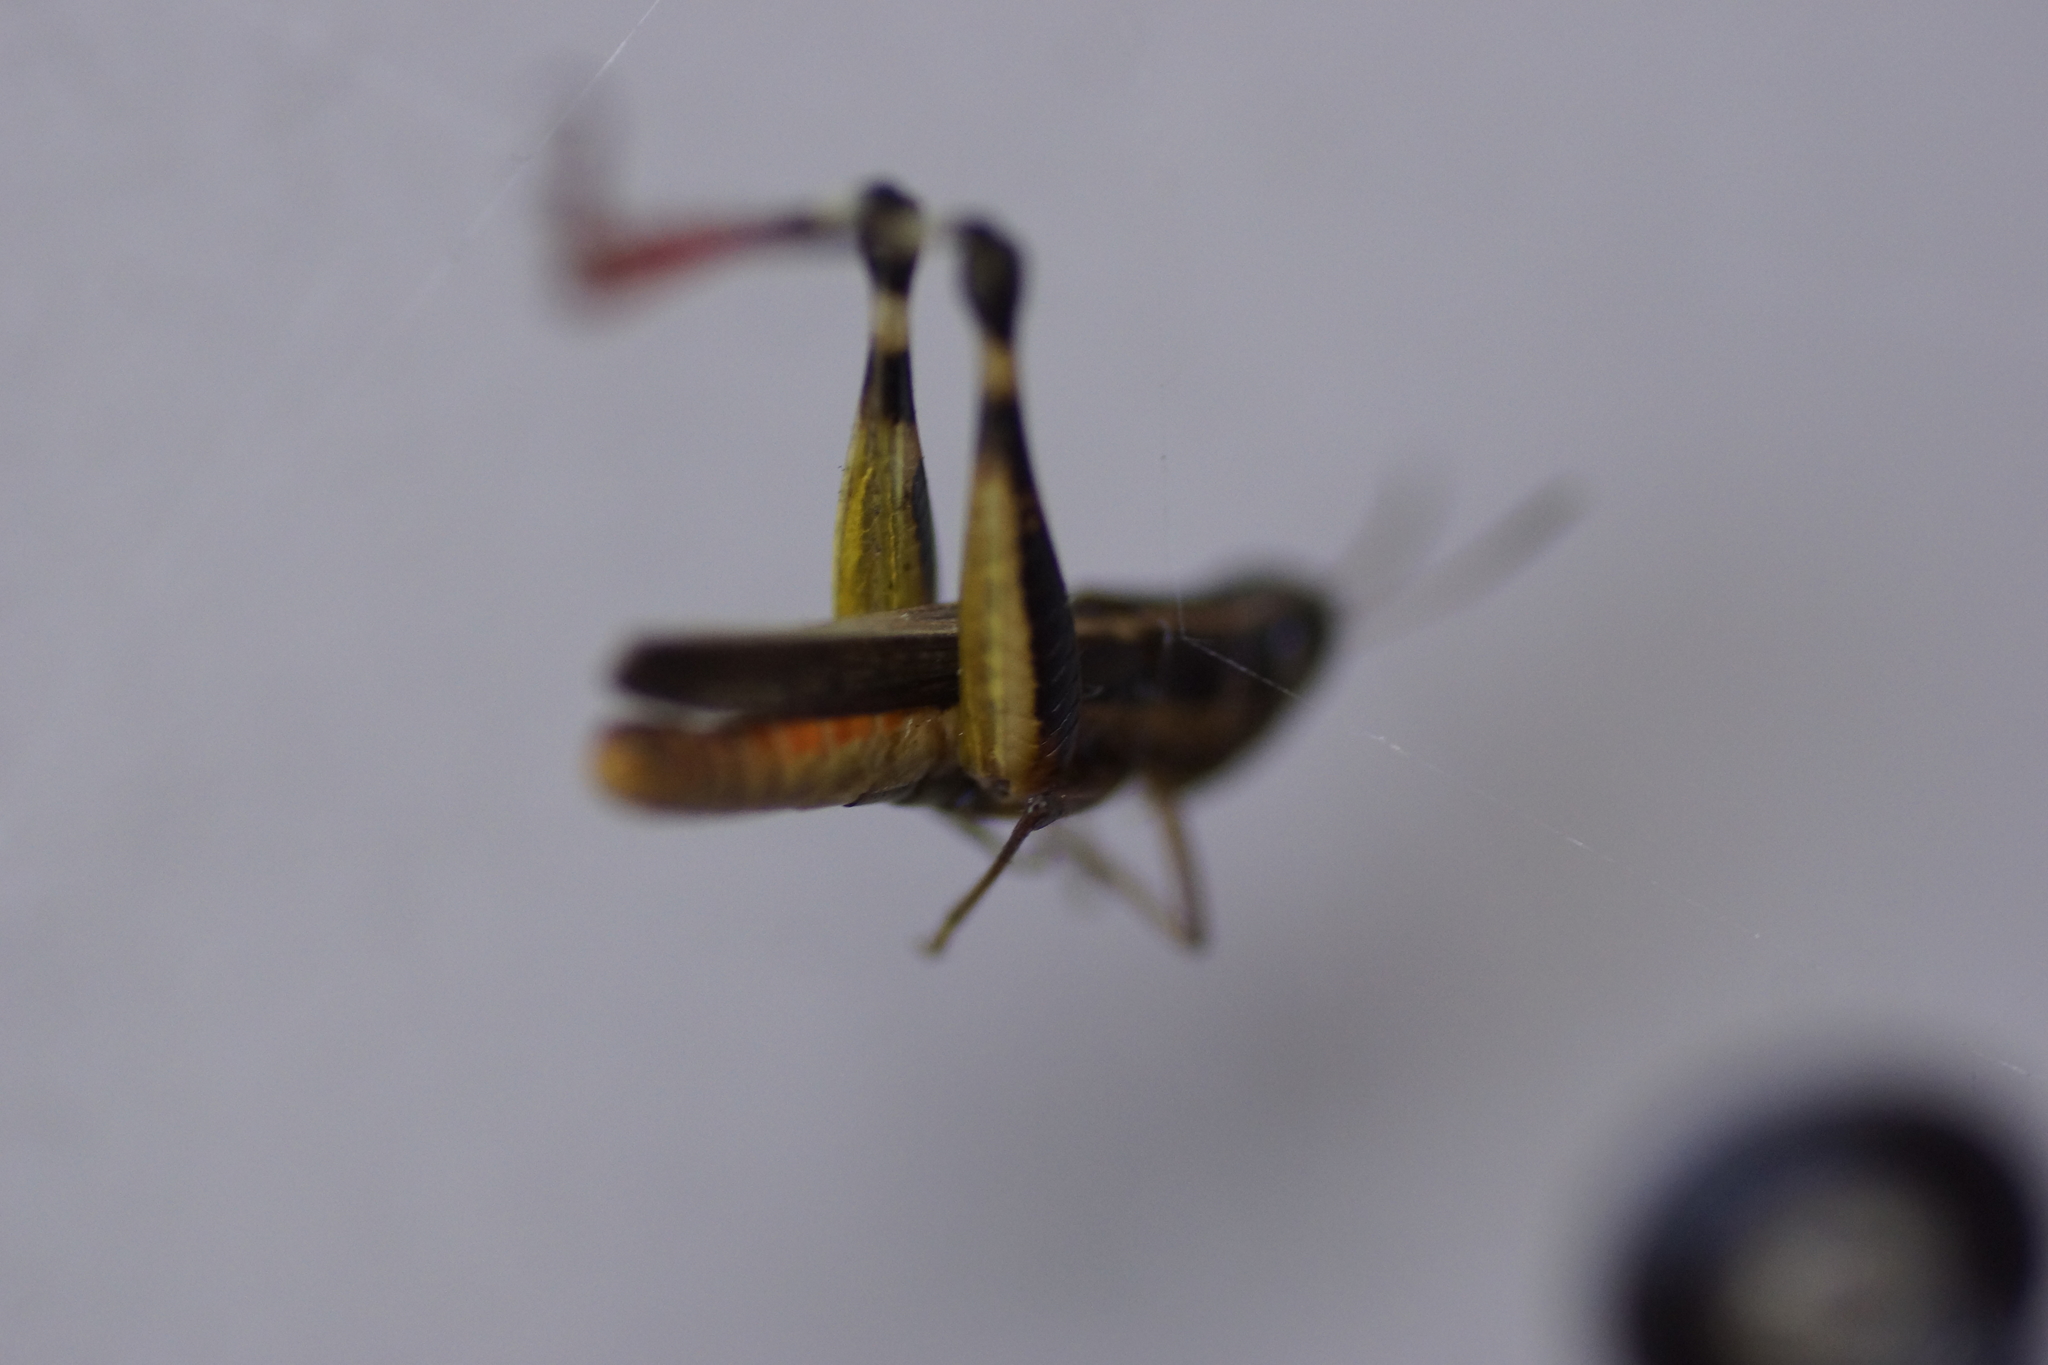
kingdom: Animalia
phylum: Arthropoda
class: Insecta
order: Orthoptera
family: Acrididae
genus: Macrotona
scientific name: Macrotona
